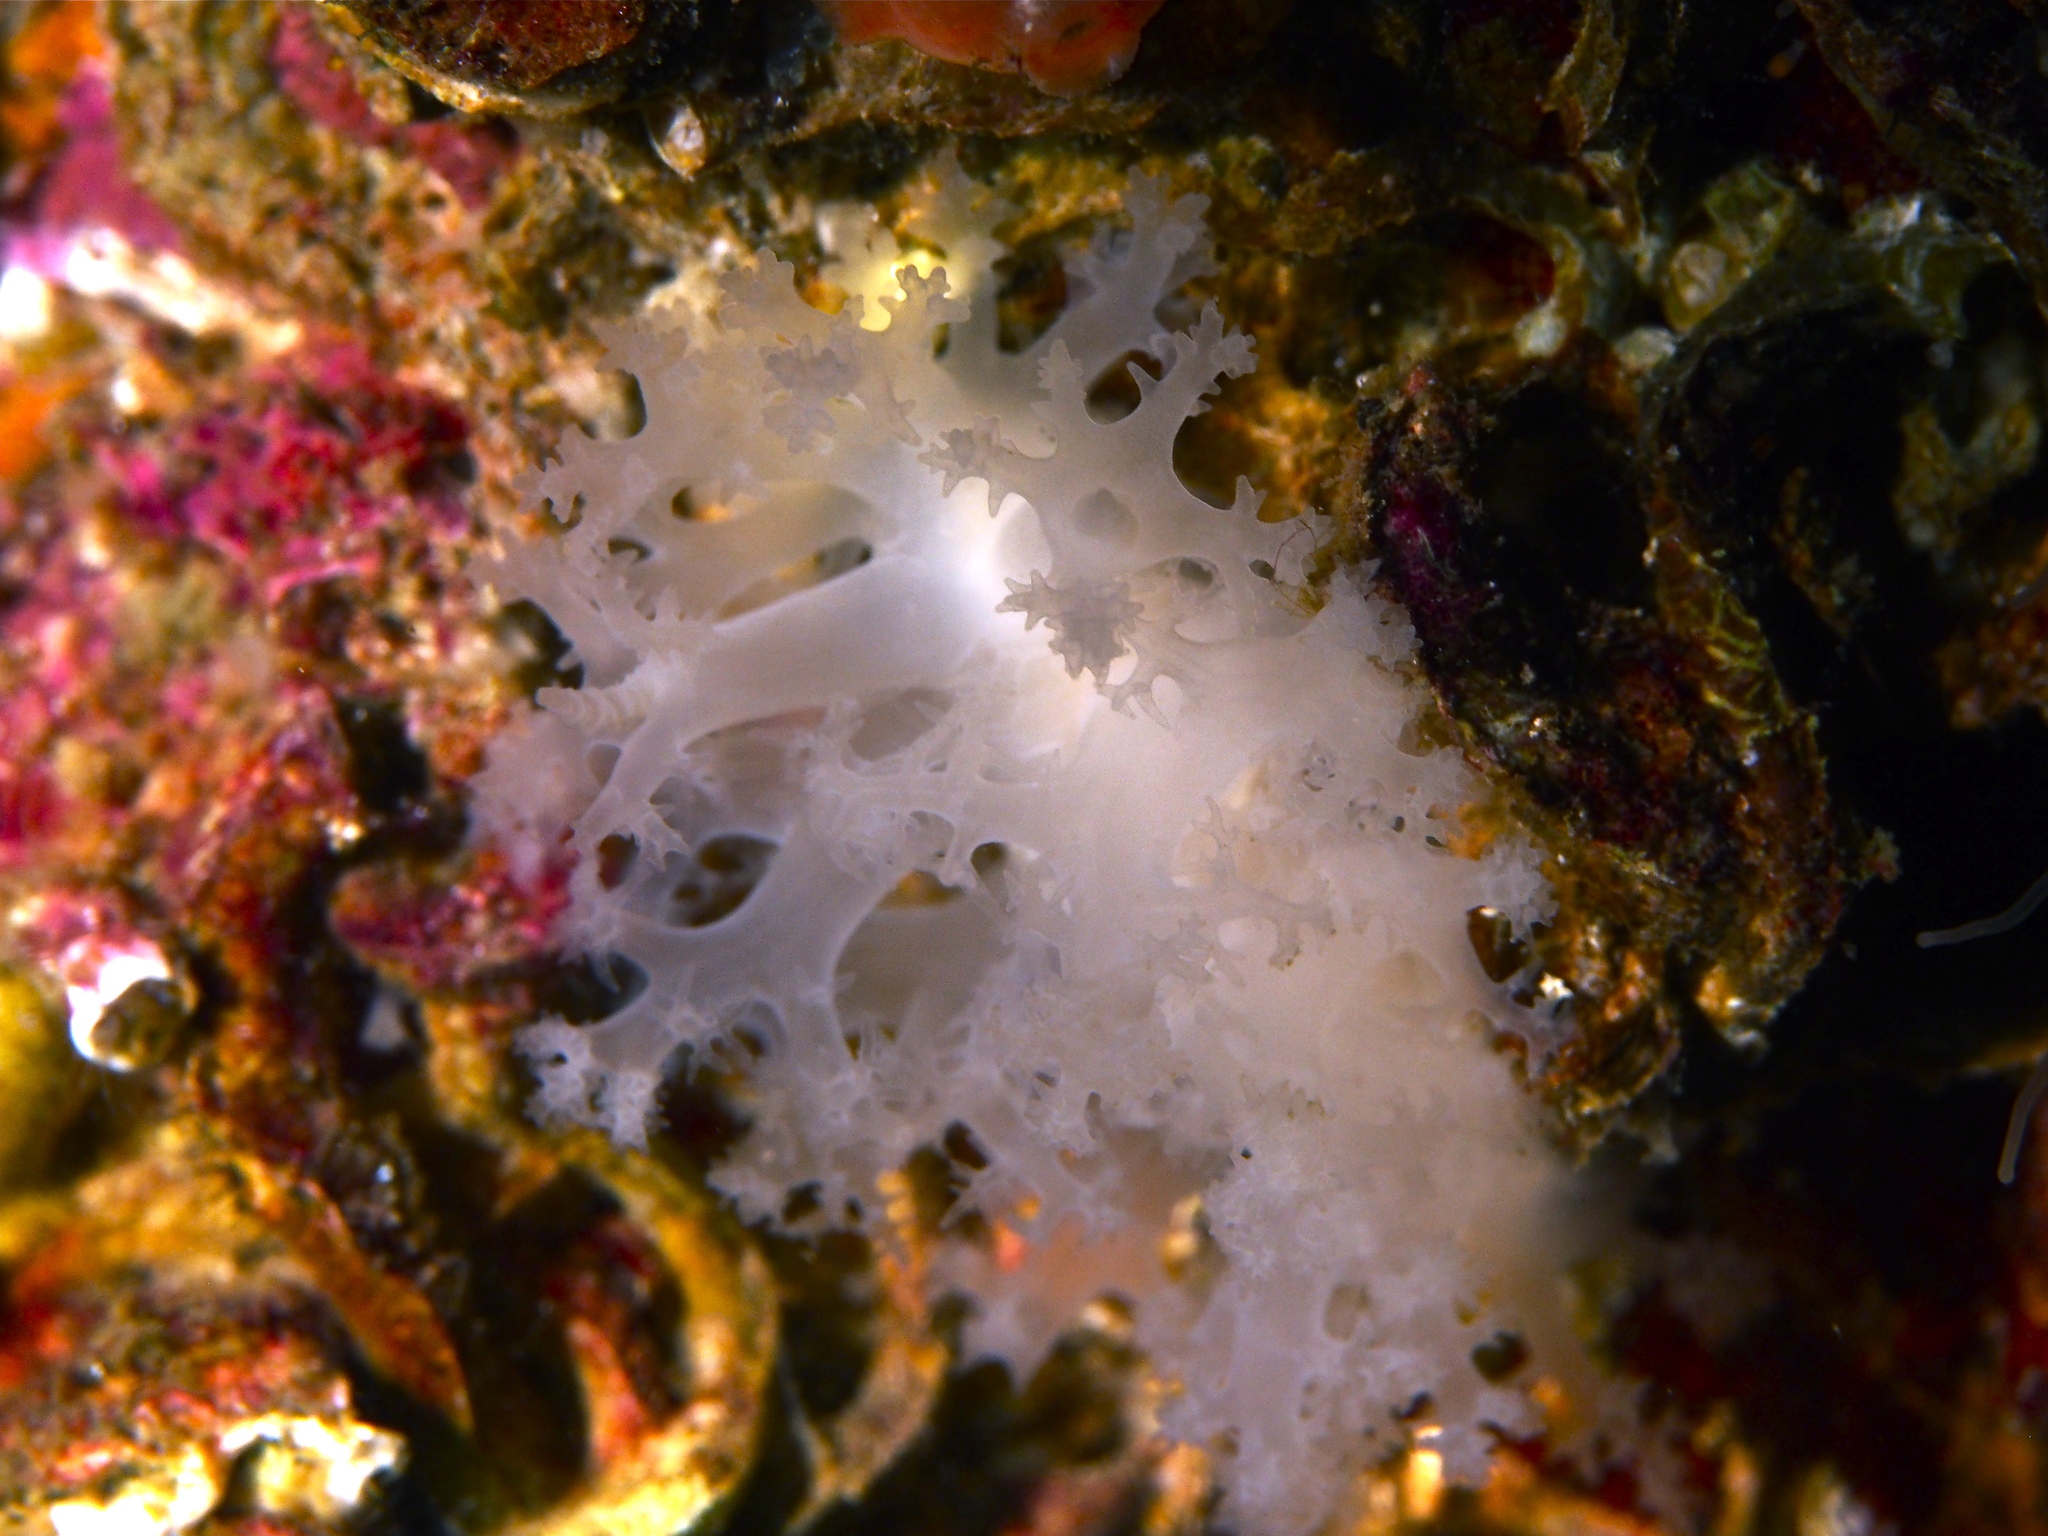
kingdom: Animalia
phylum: Mollusca
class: Gastropoda
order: Nudibranchia
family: Dendronotidae
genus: Dendronotus
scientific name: Dendronotus lacteus
